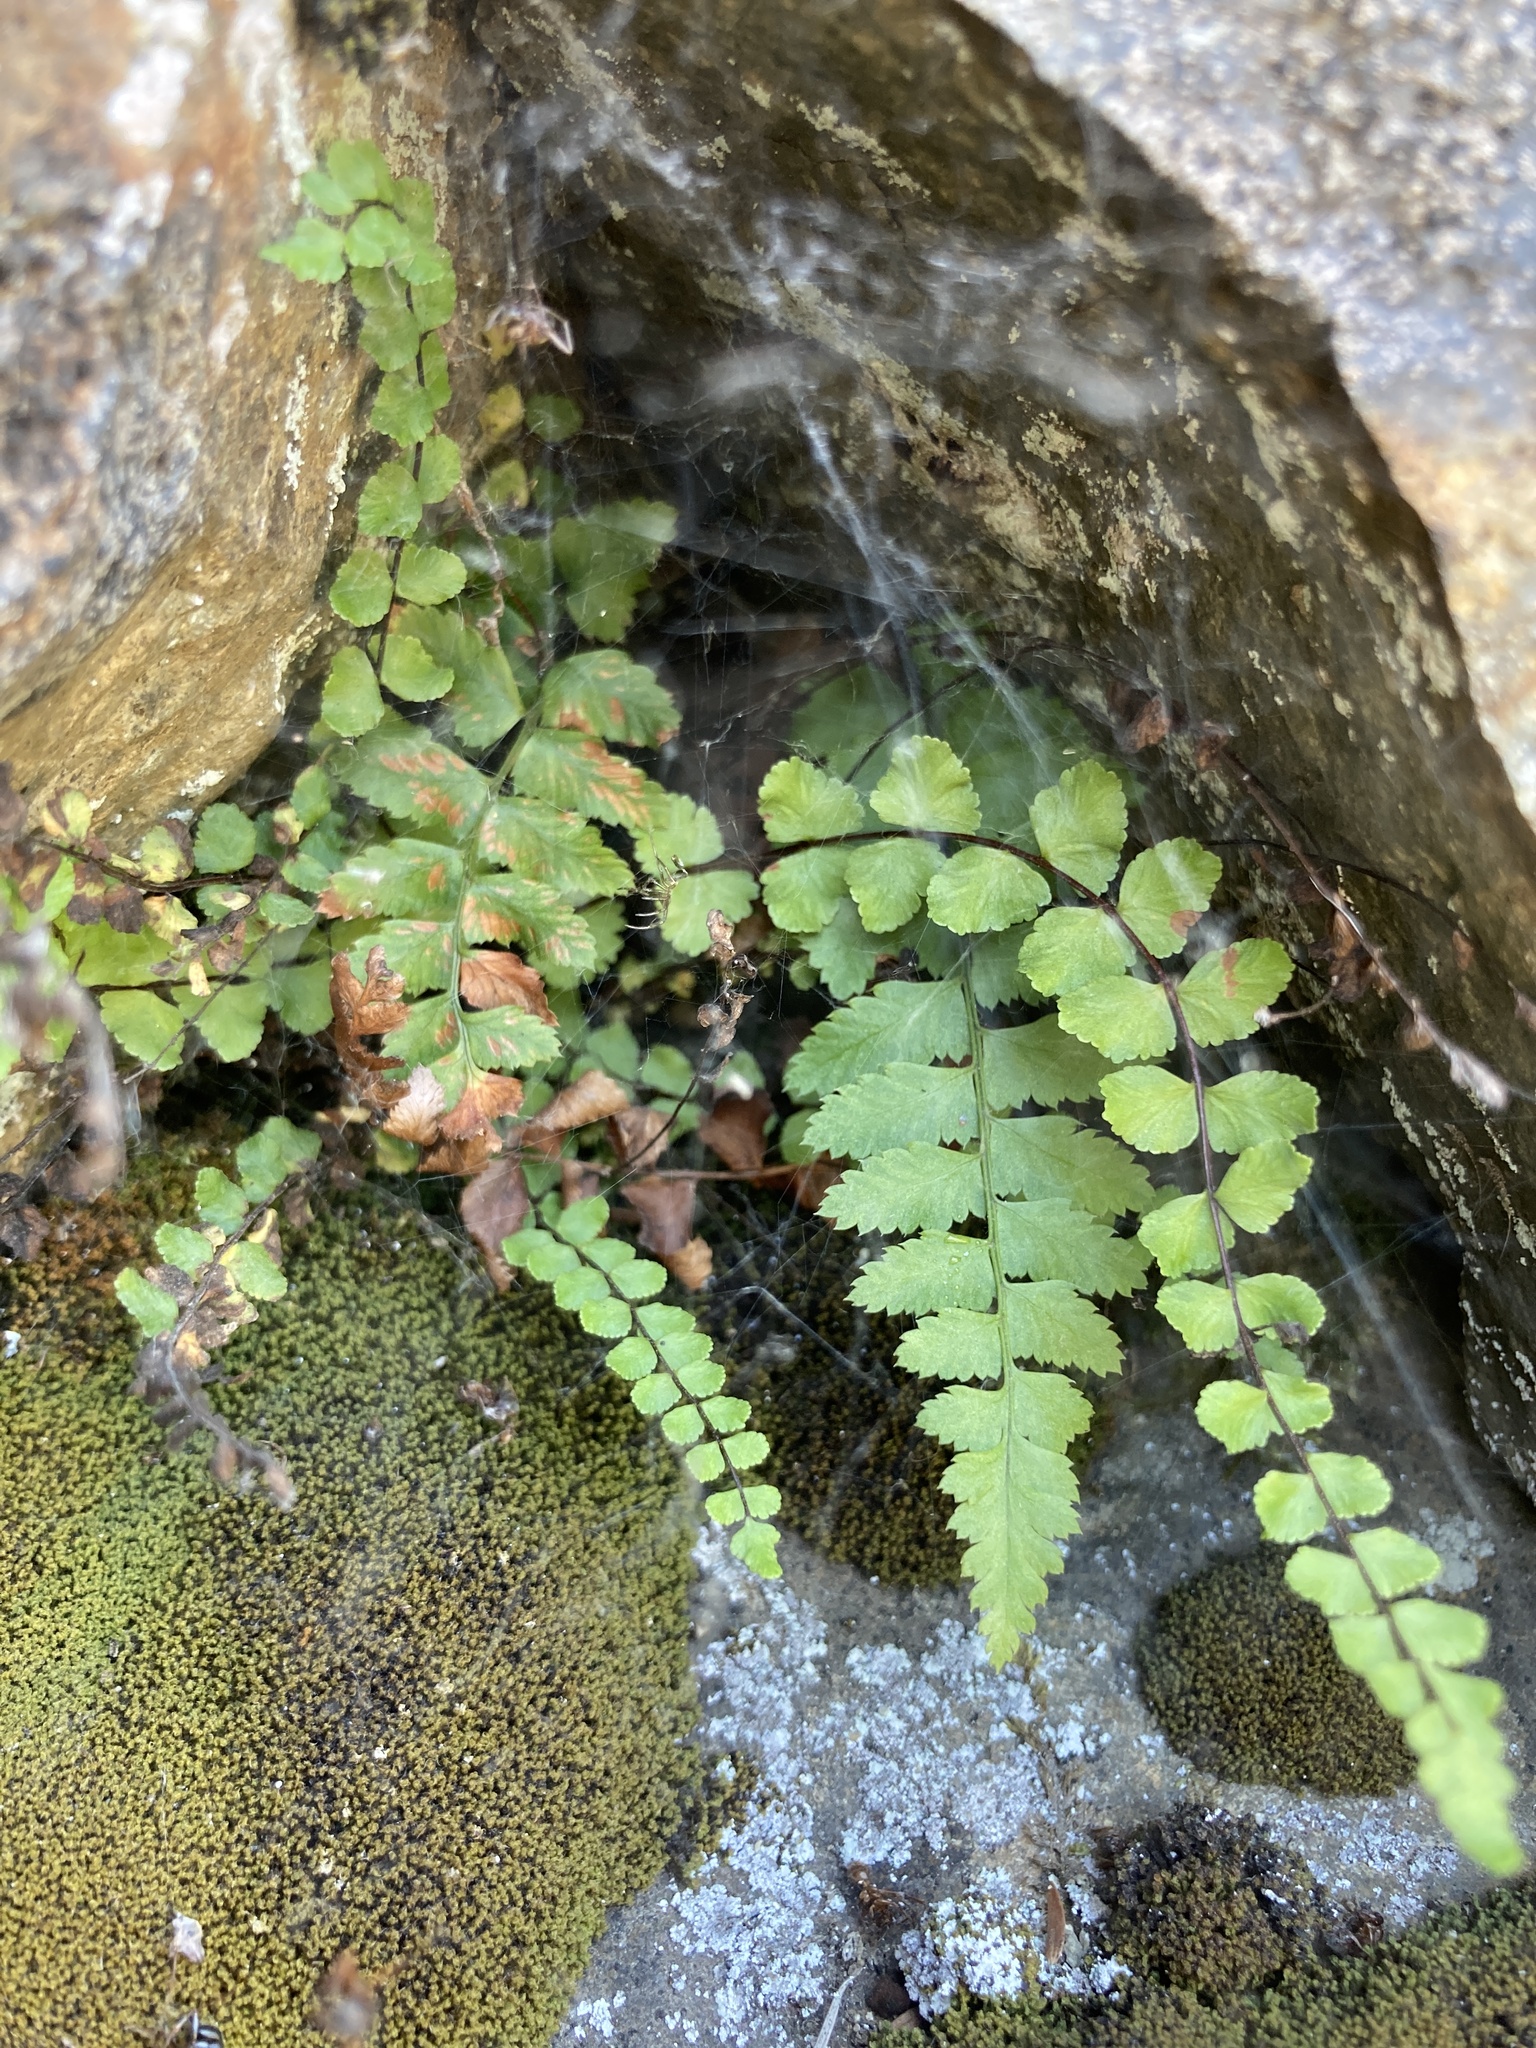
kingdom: Plantae
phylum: Tracheophyta
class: Polypodiopsida
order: Polypodiales
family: Aspleniaceae
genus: Asplenium
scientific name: Asplenium trichomanes
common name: Maidenhair spleenwort
